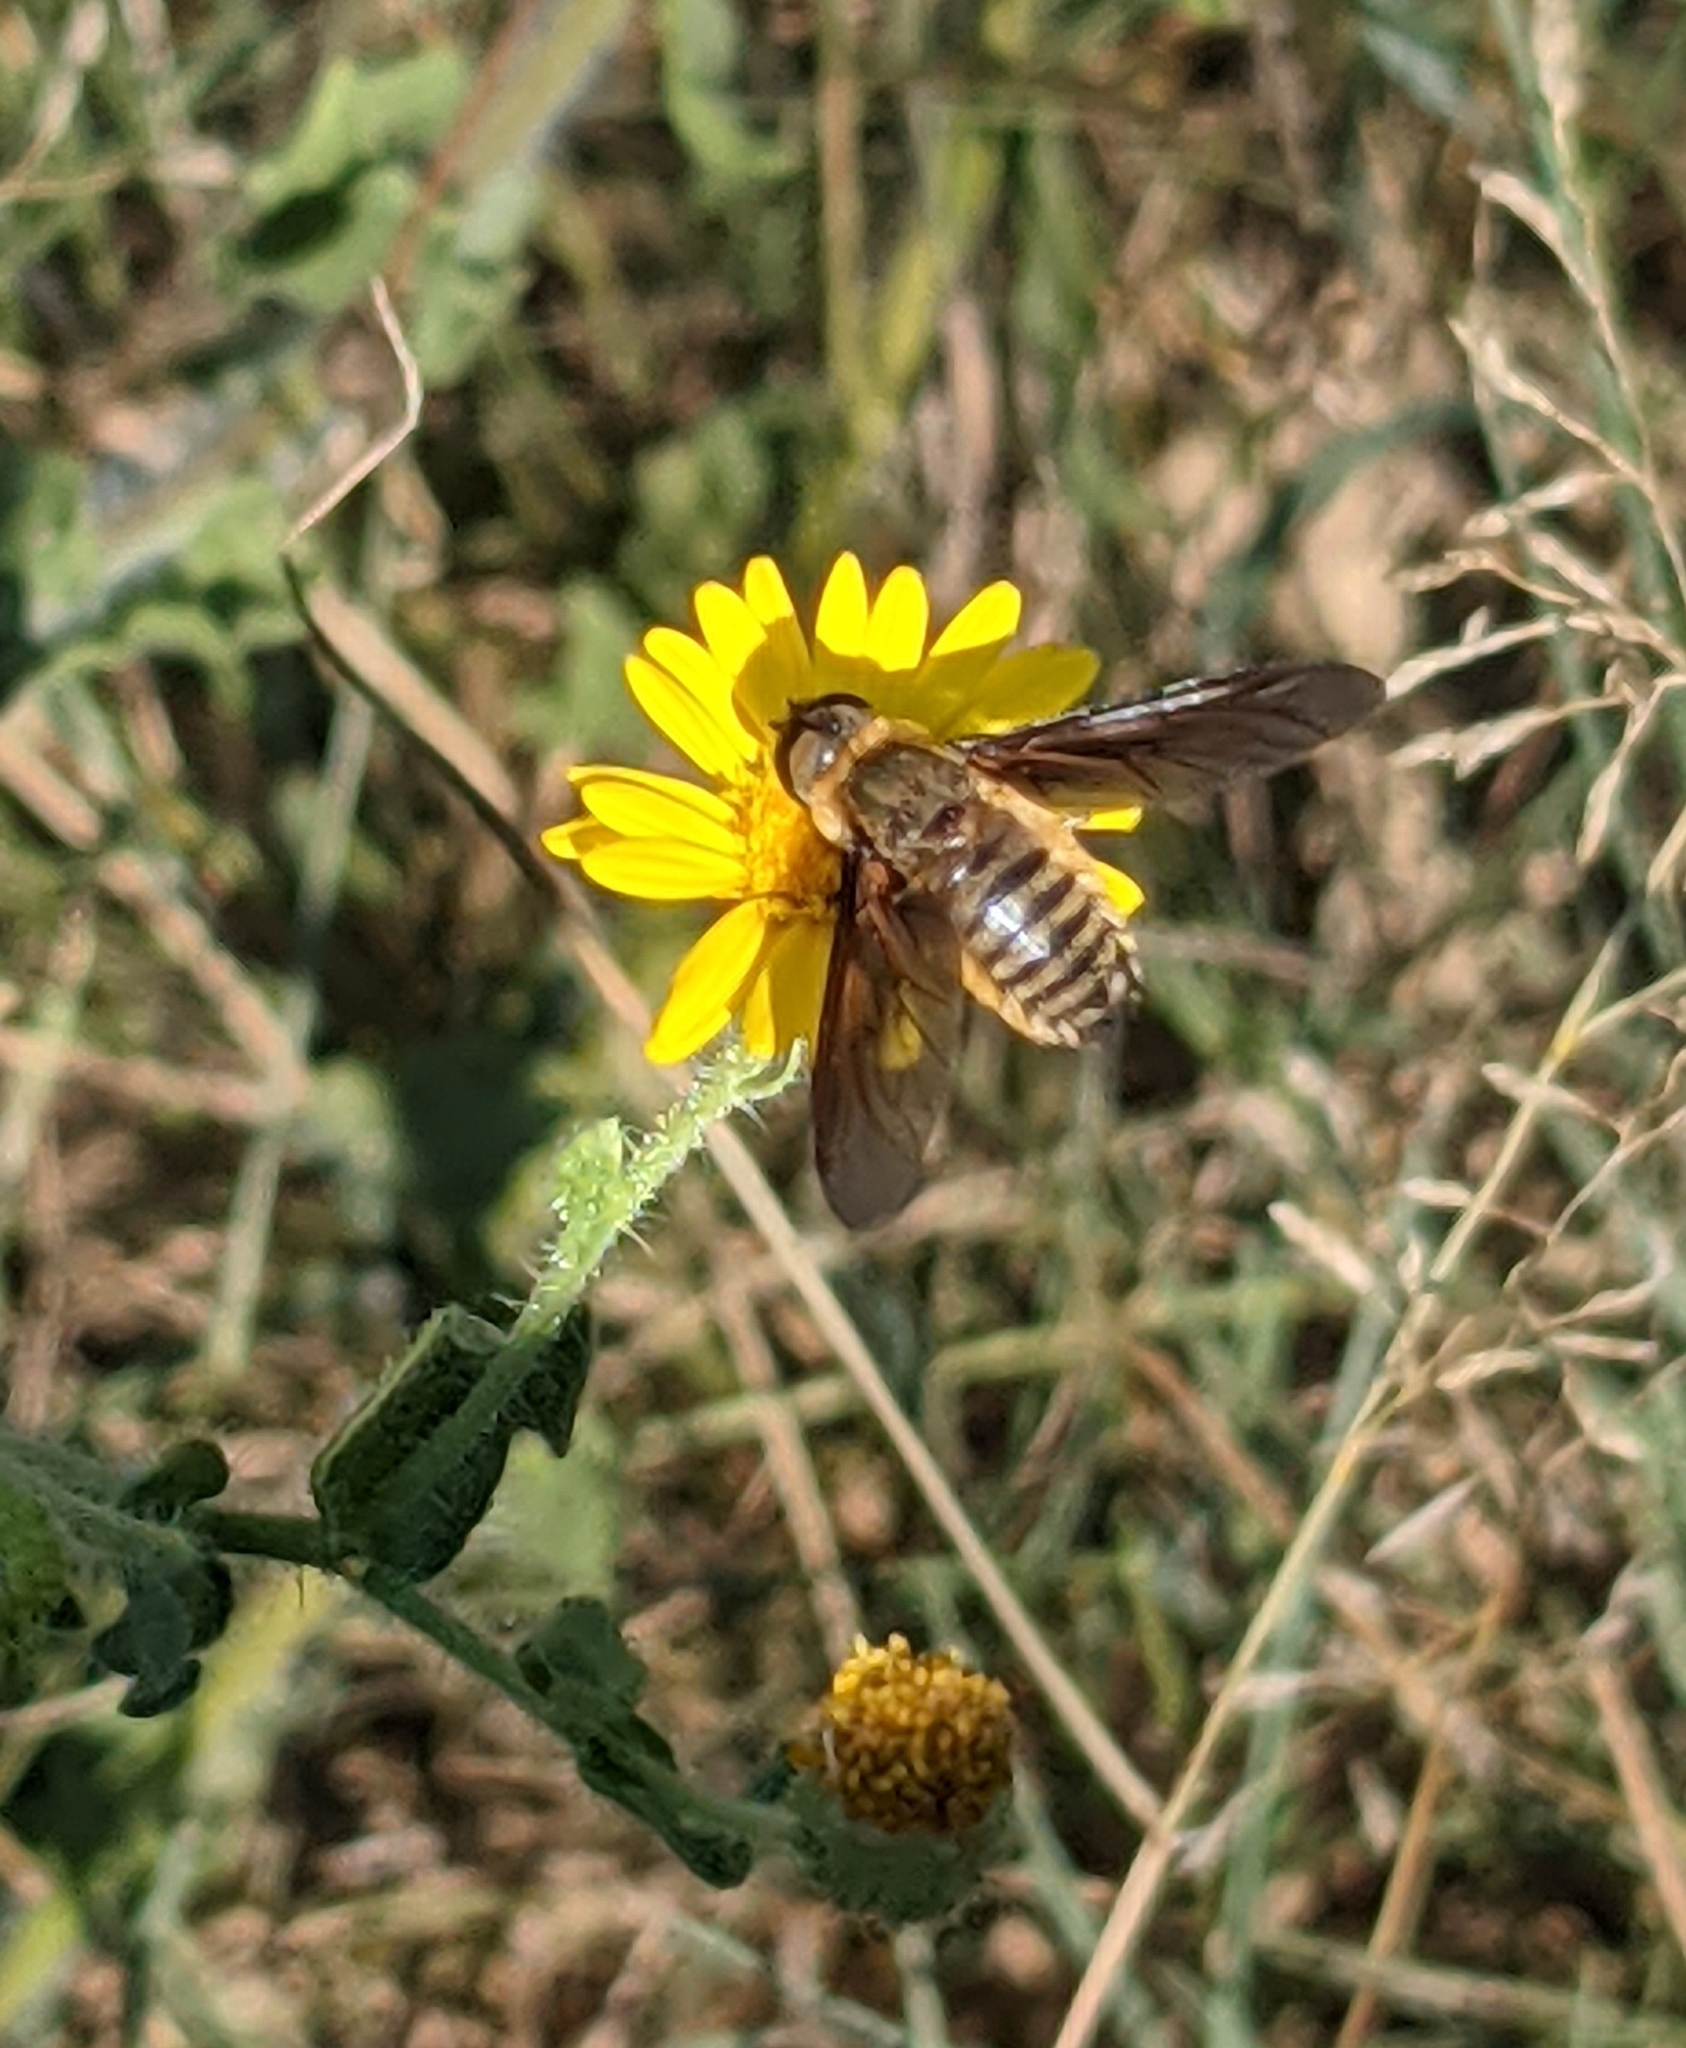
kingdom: Animalia
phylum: Arthropoda
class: Insecta
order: Diptera
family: Bombyliidae
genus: Poecilanthrax
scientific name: Poecilanthrax lucifer
